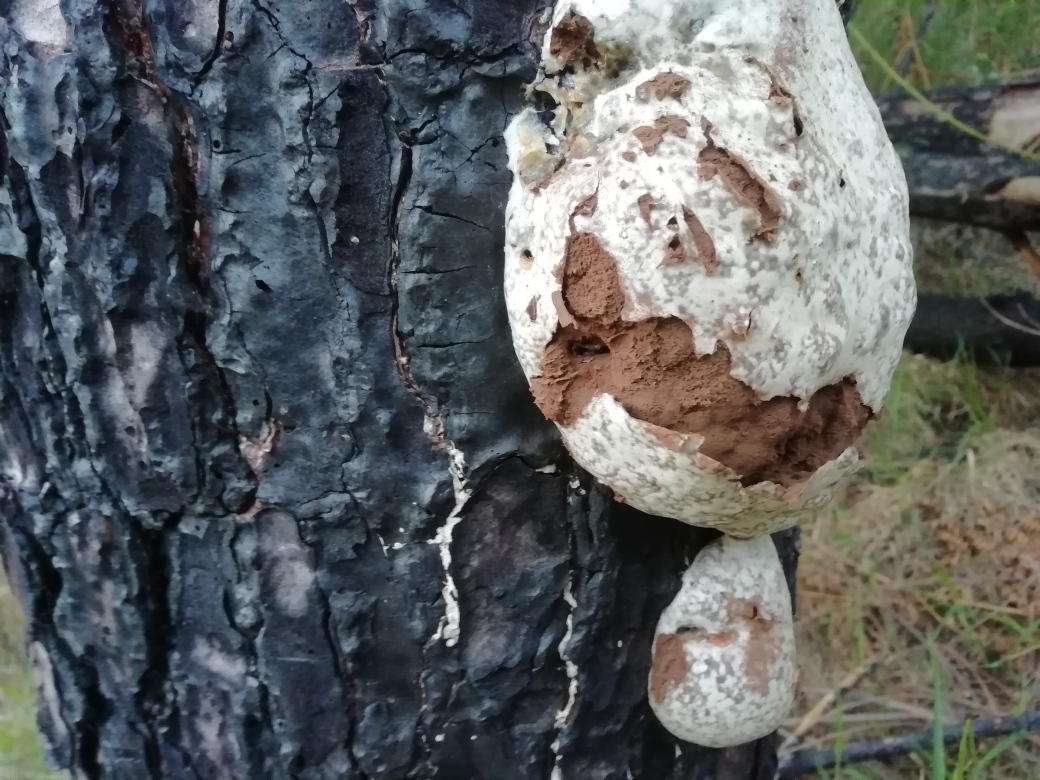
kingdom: Protozoa
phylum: Mycetozoa
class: Myxomycetes
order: Cribrariales
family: Tubiferaceae
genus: Reticularia
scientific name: Reticularia lycoperdon
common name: False puffball
